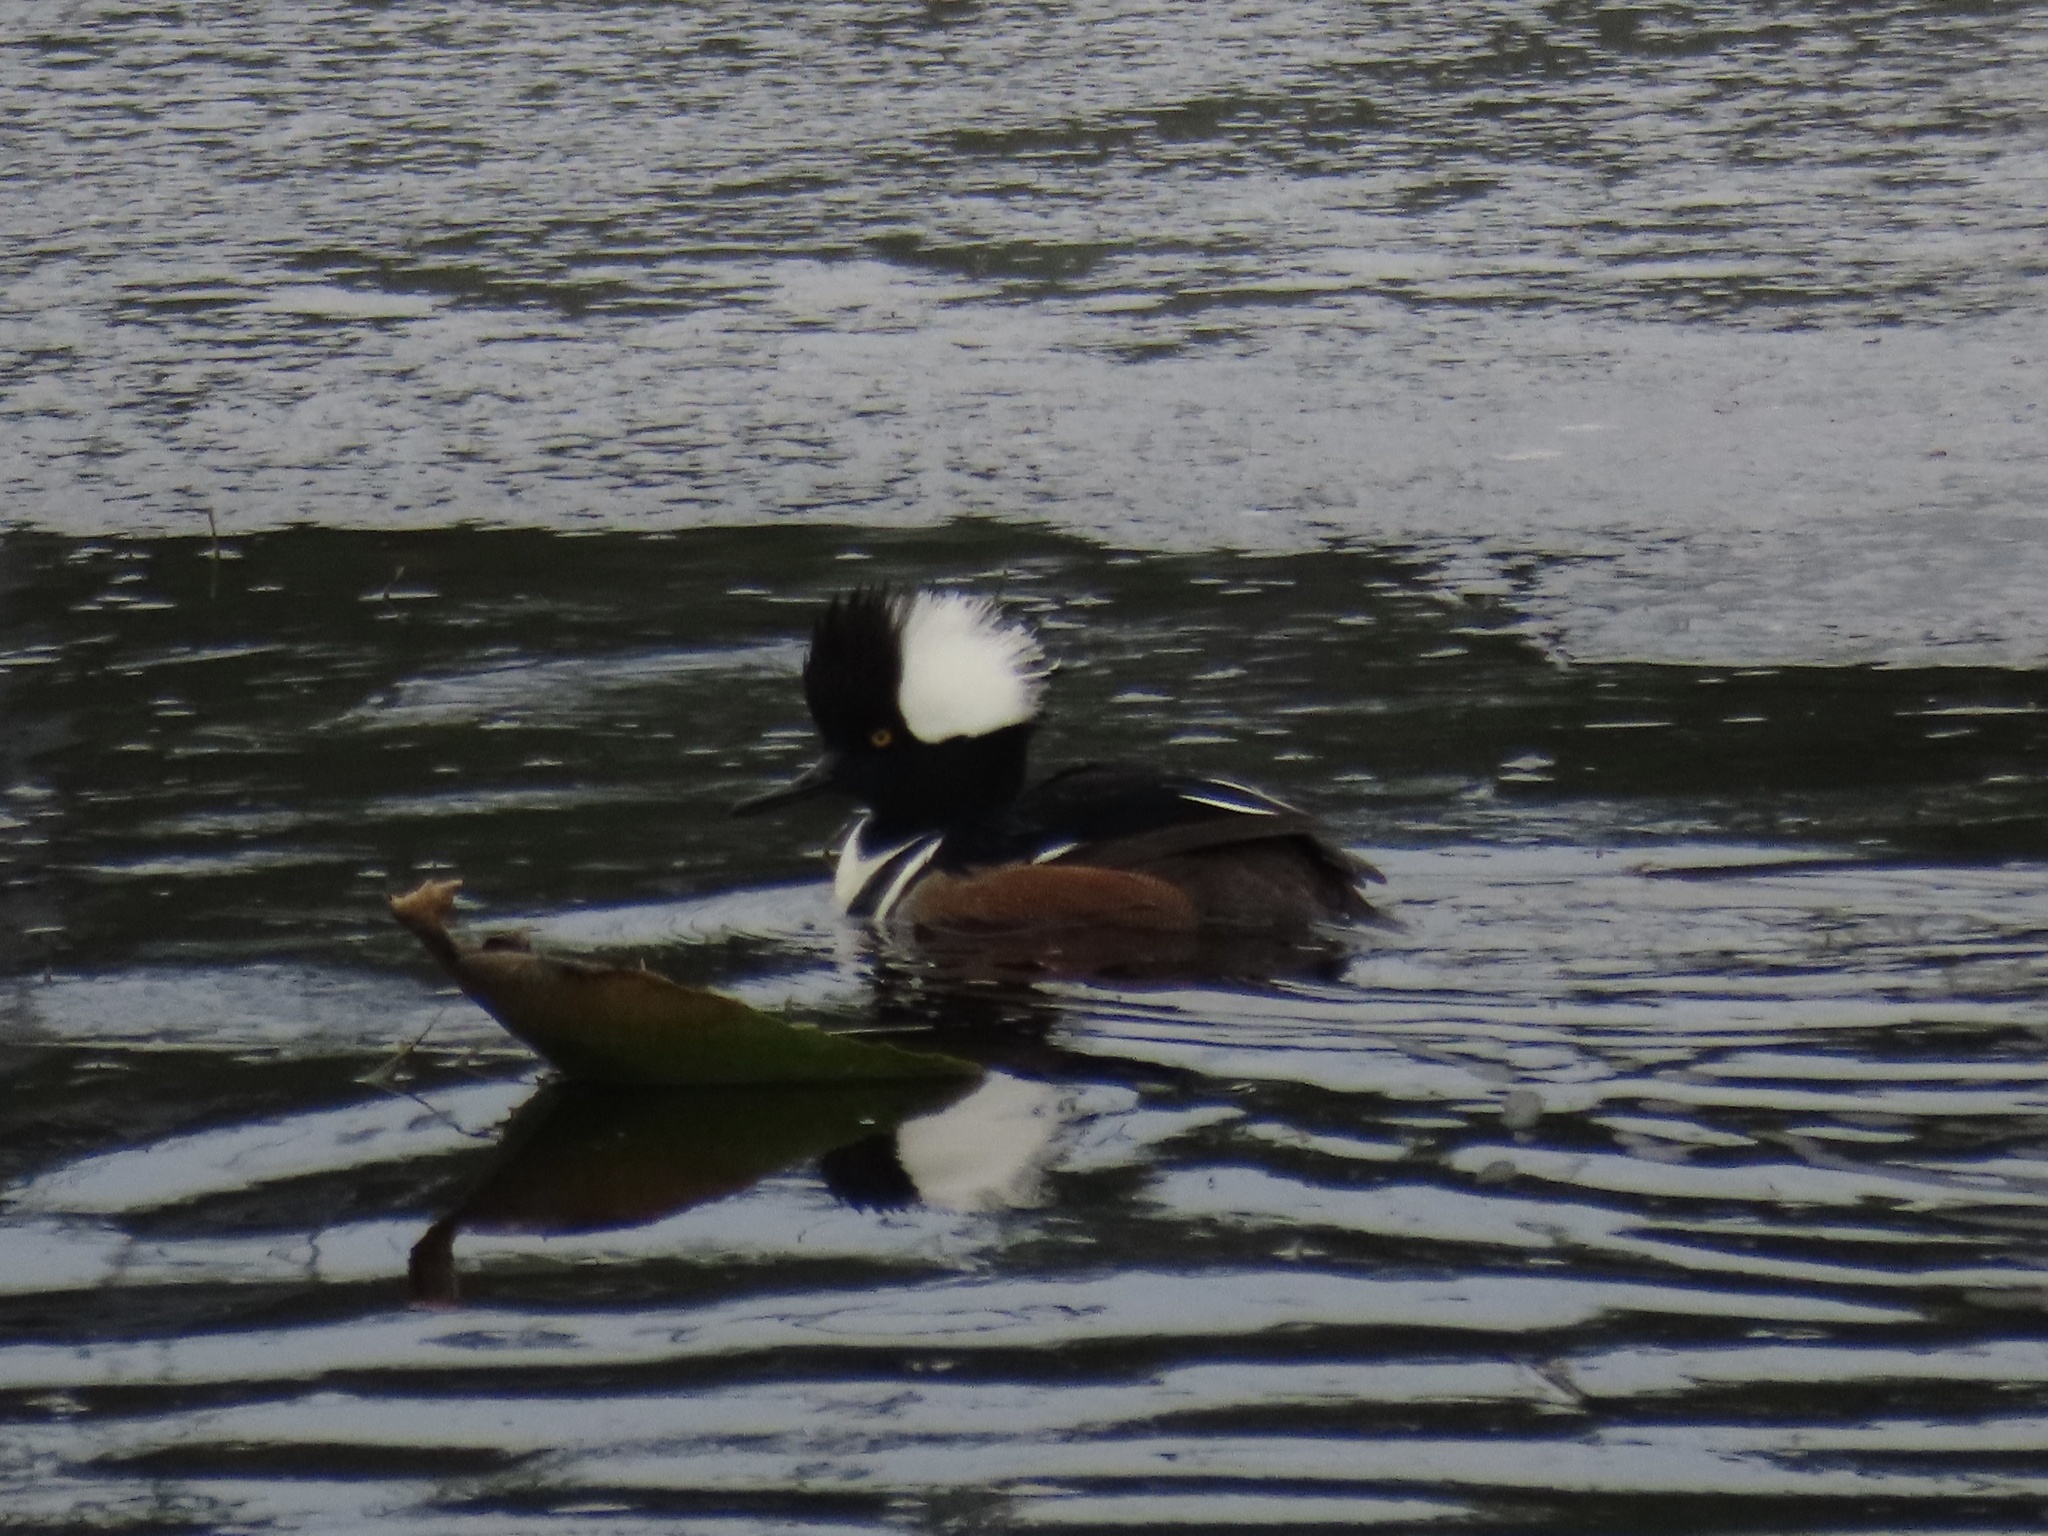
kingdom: Animalia
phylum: Chordata
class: Aves
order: Anseriformes
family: Anatidae
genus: Lophodytes
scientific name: Lophodytes cucullatus
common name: Hooded merganser
